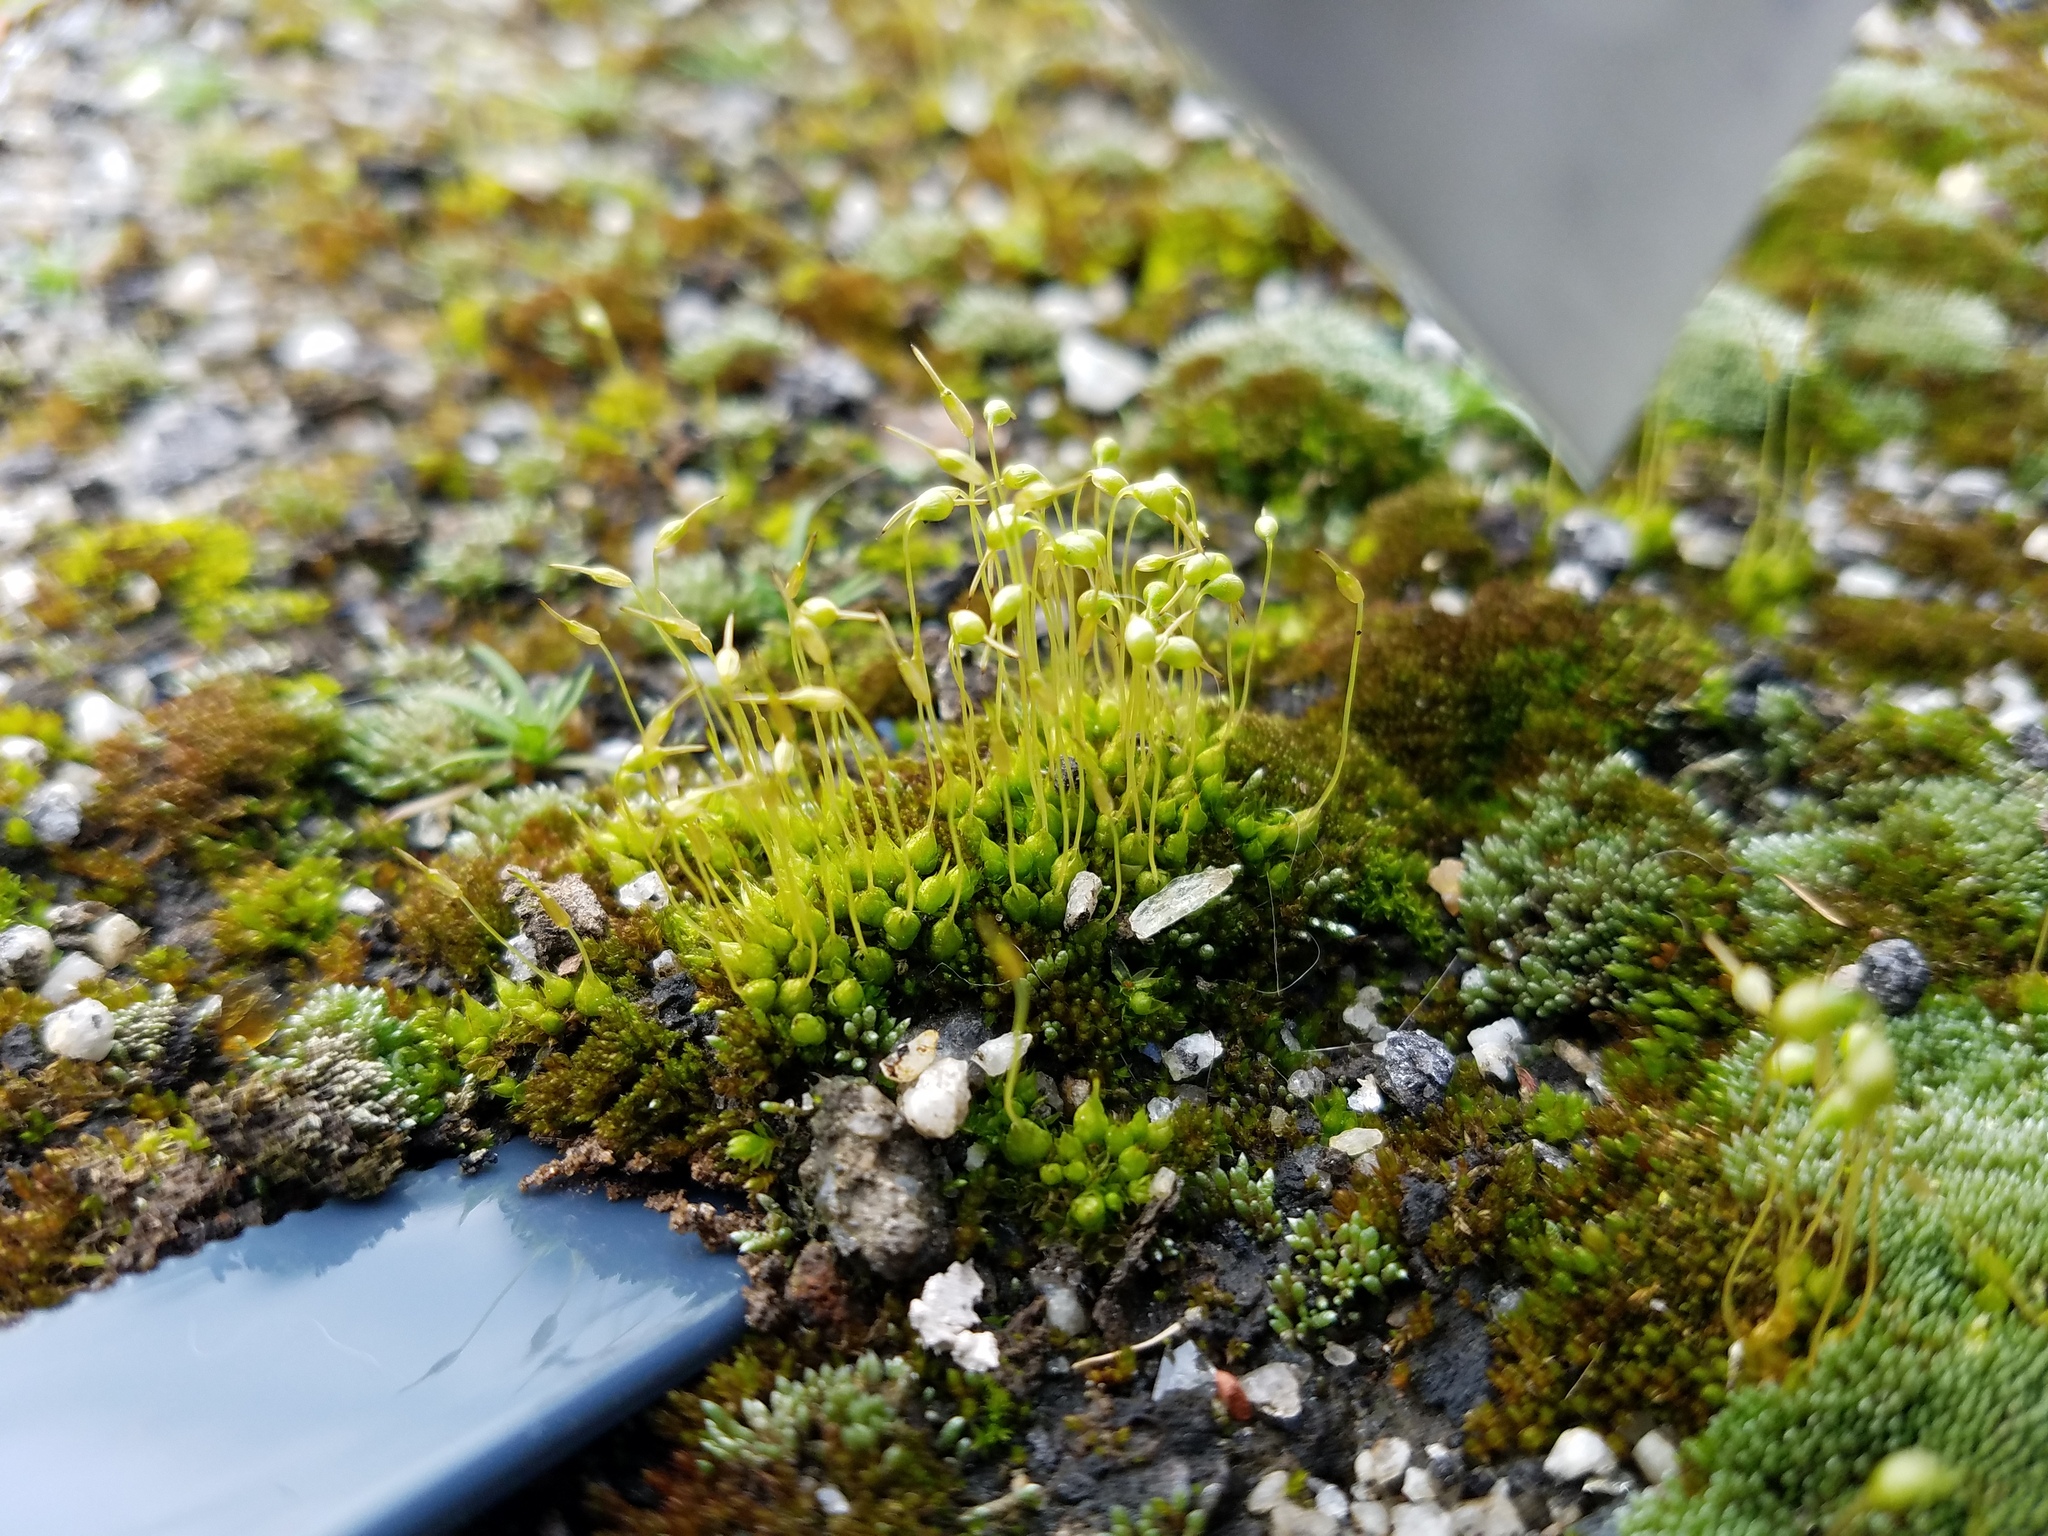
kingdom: Plantae
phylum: Bryophyta
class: Bryopsida
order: Funariales
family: Funariaceae
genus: Funaria
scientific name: Funaria hygrometrica
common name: Common cord moss
